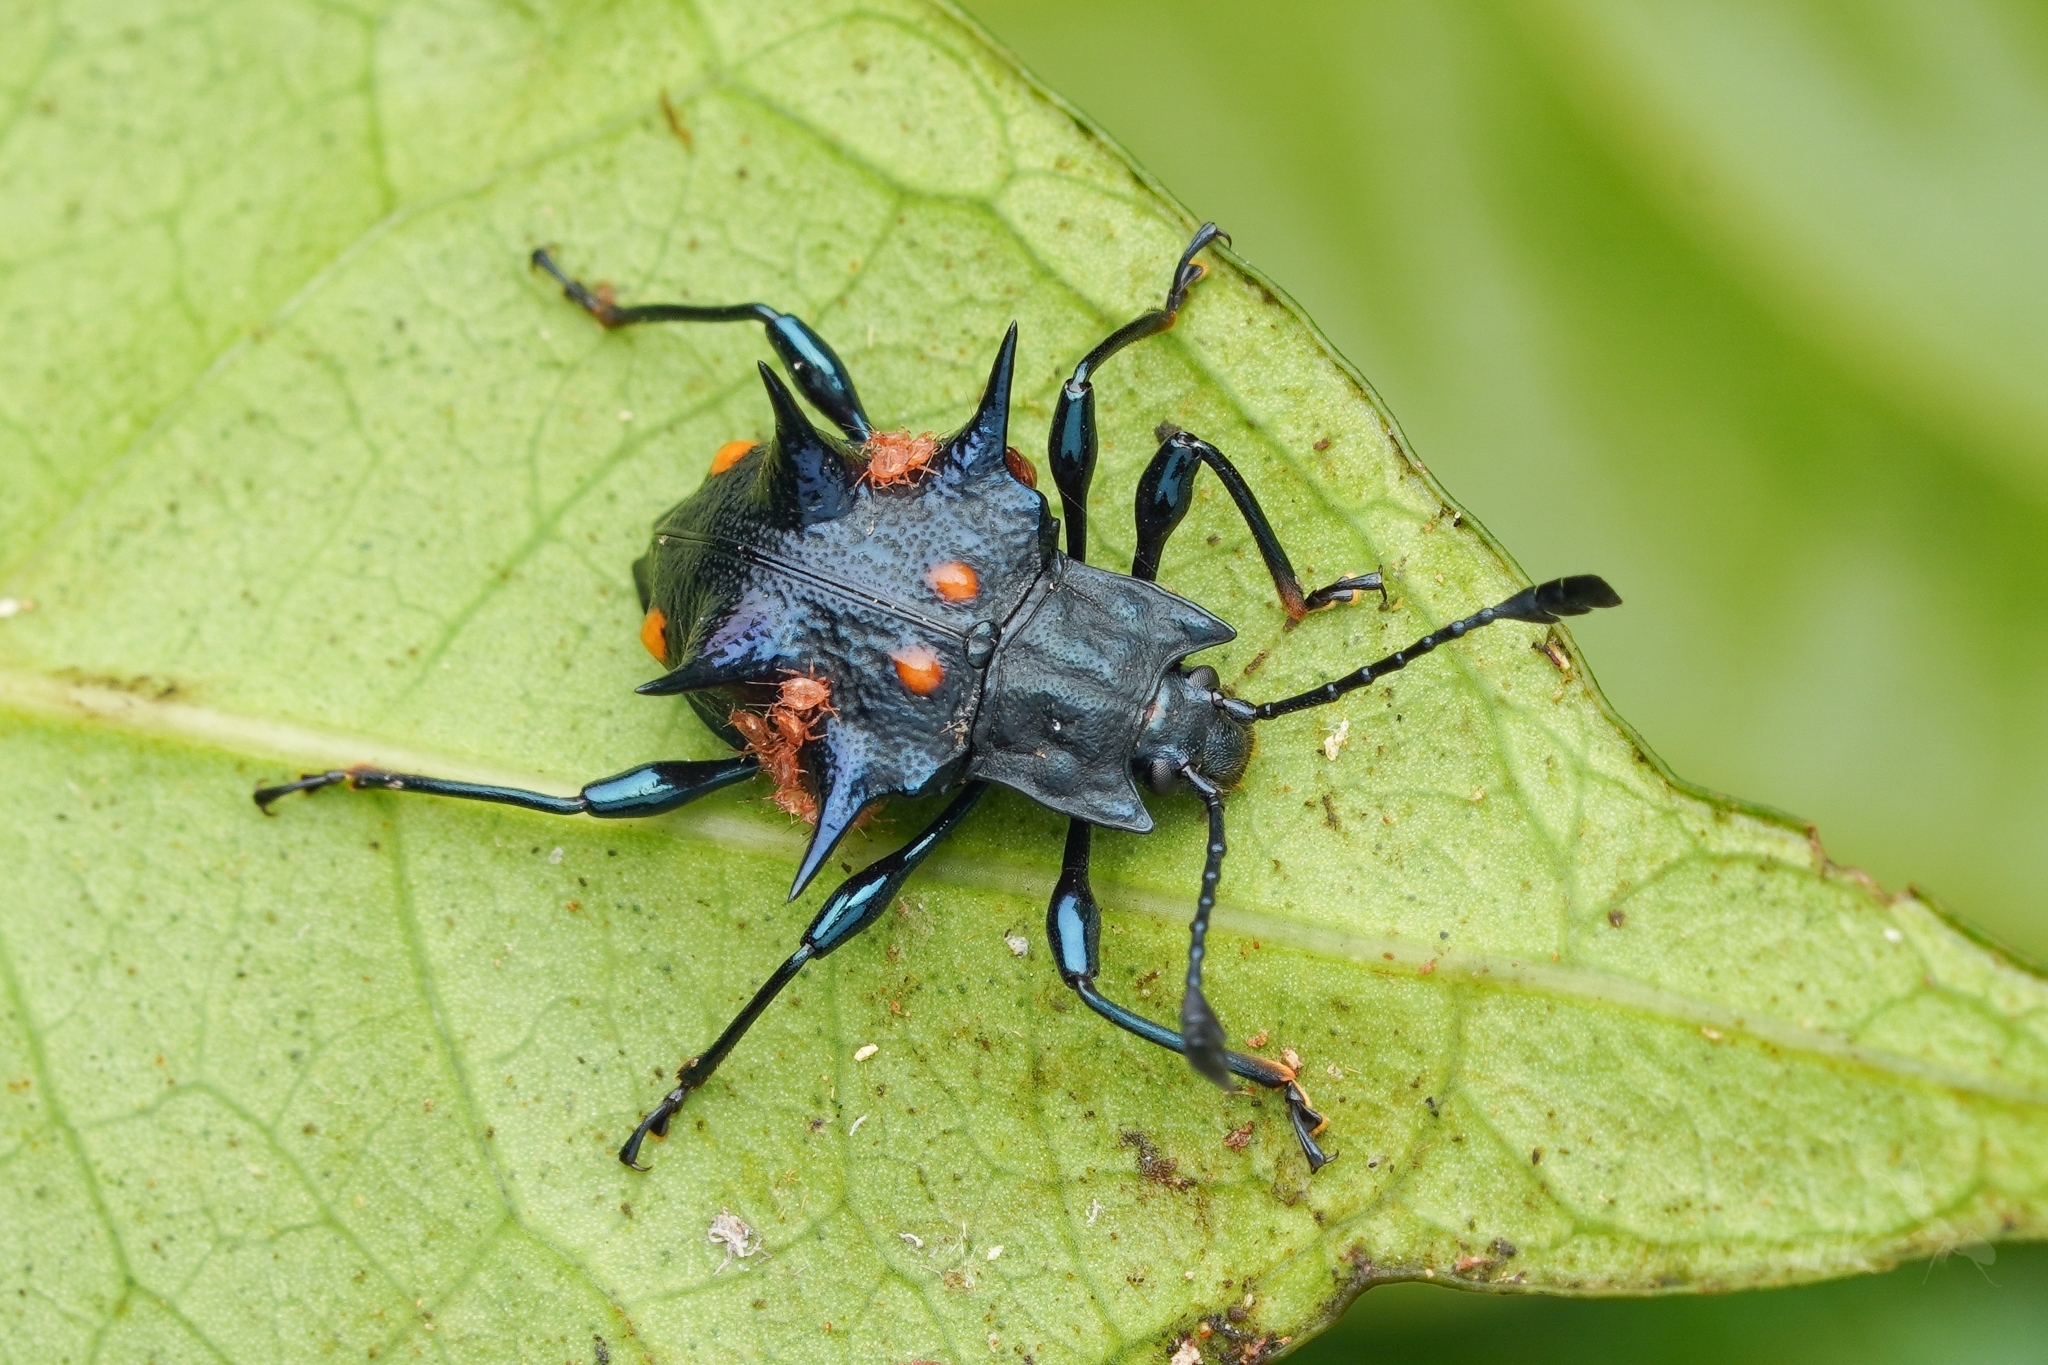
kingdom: Animalia
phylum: Arthropoda
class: Insecta
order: Coleoptera
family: Endomychidae
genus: Cacodaemon
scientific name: Cacodaemon
